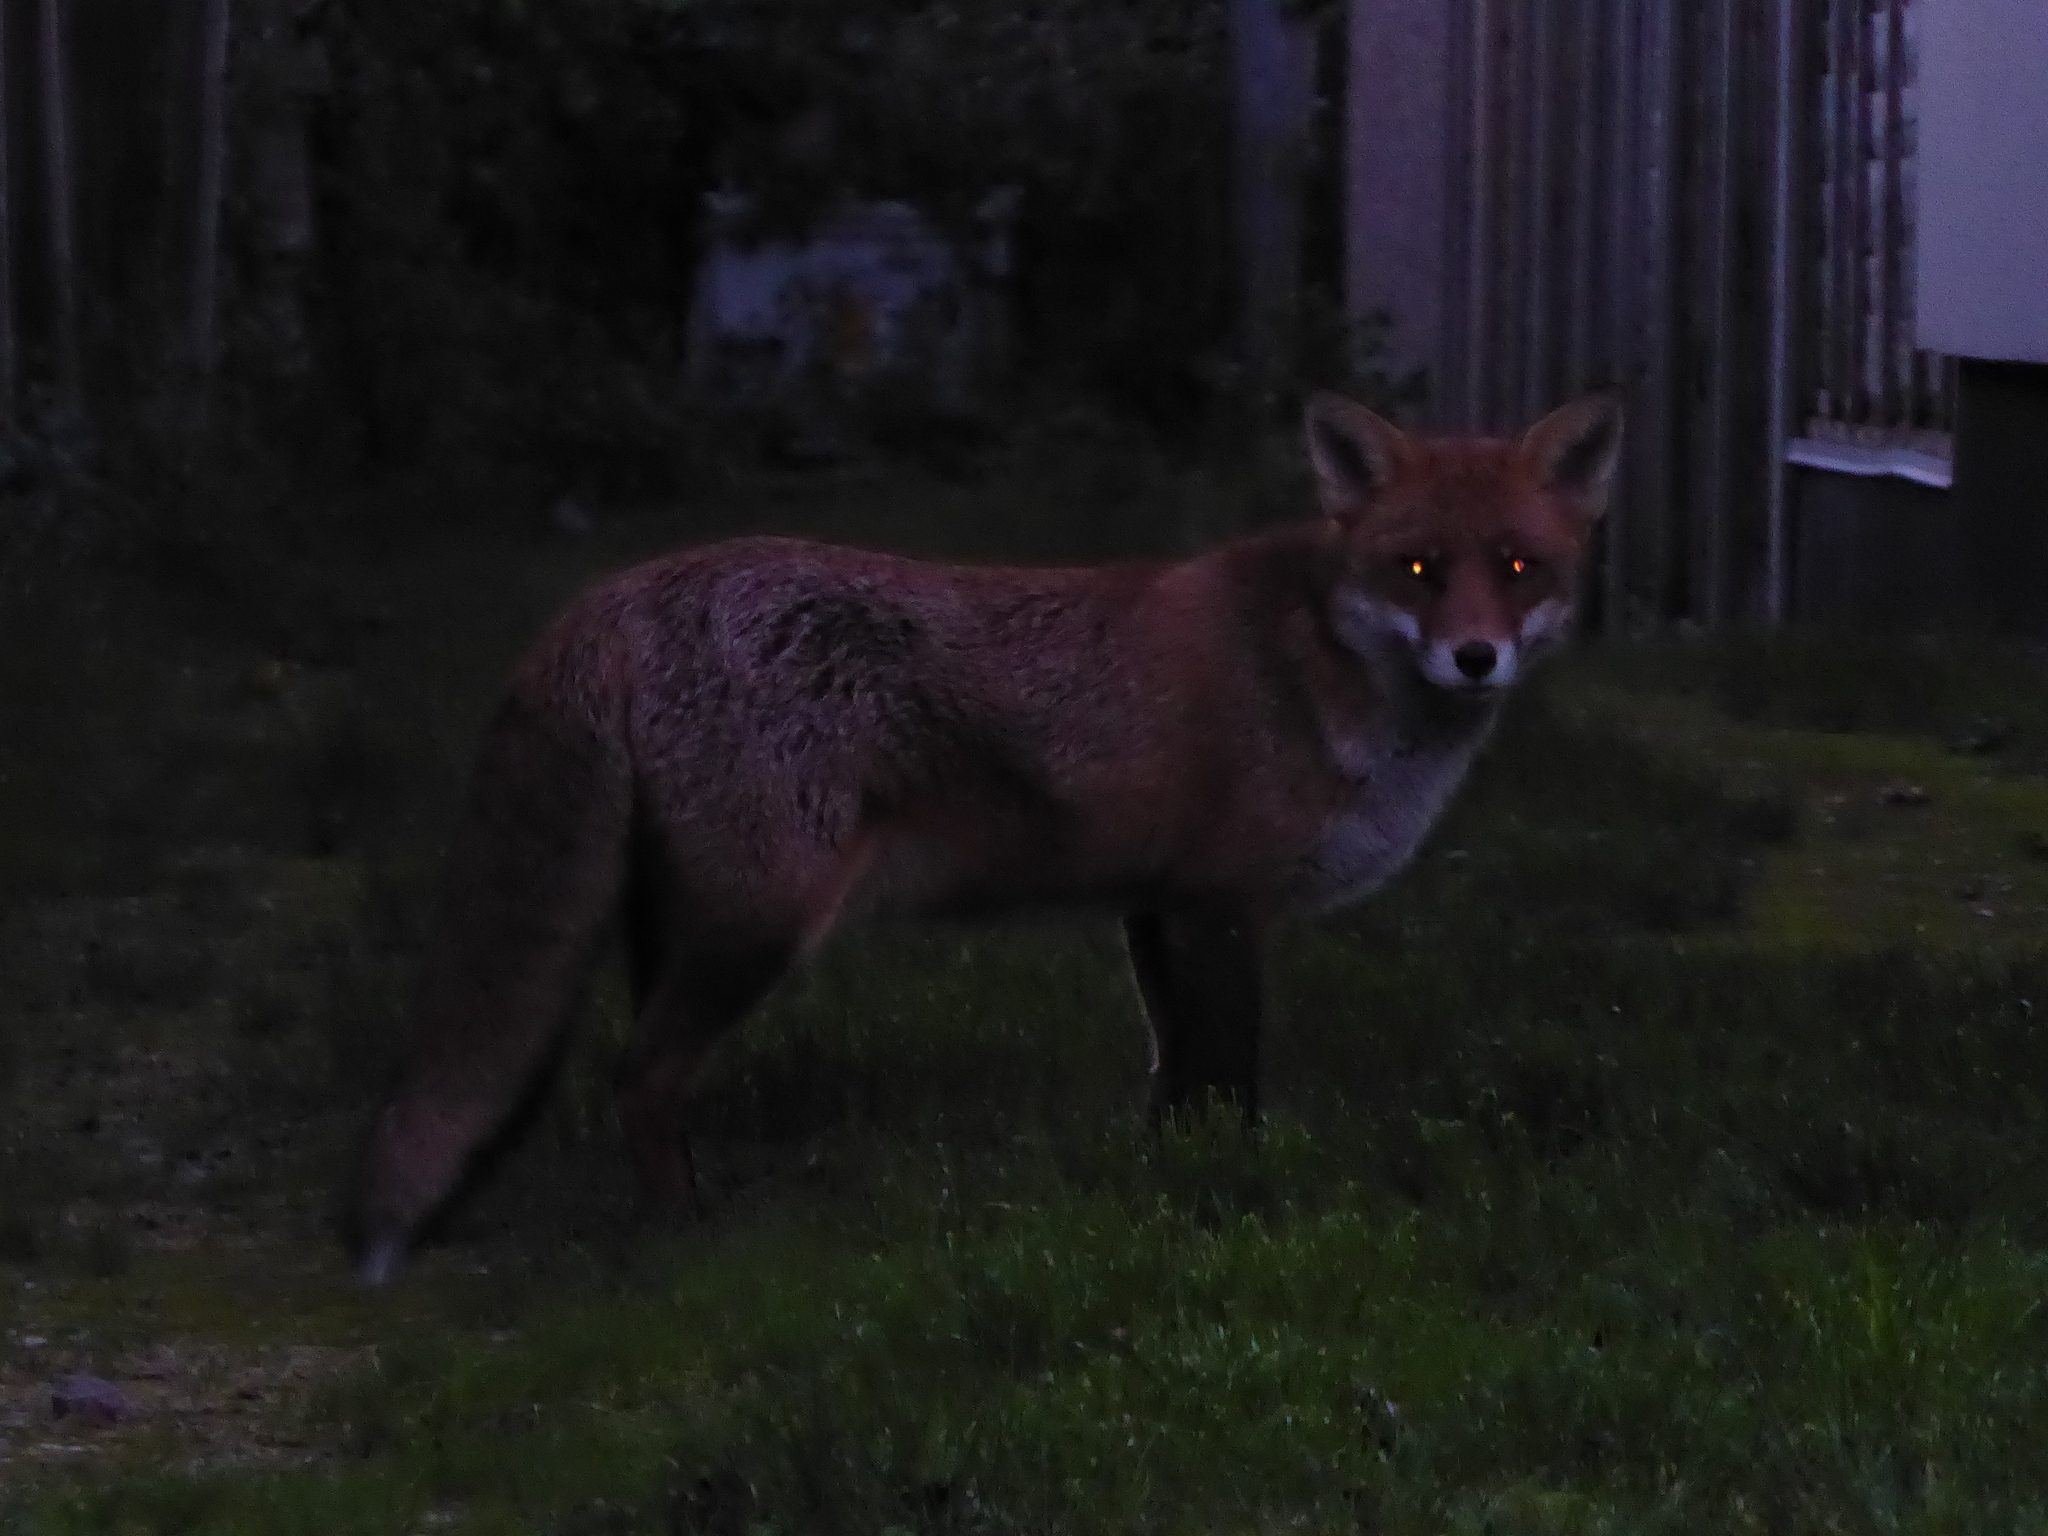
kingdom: Animalia
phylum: Chordata
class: Mammalia
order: Carnivora
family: Canidae
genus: Vulpes
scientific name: Vulpes vulpes
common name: Red fox
